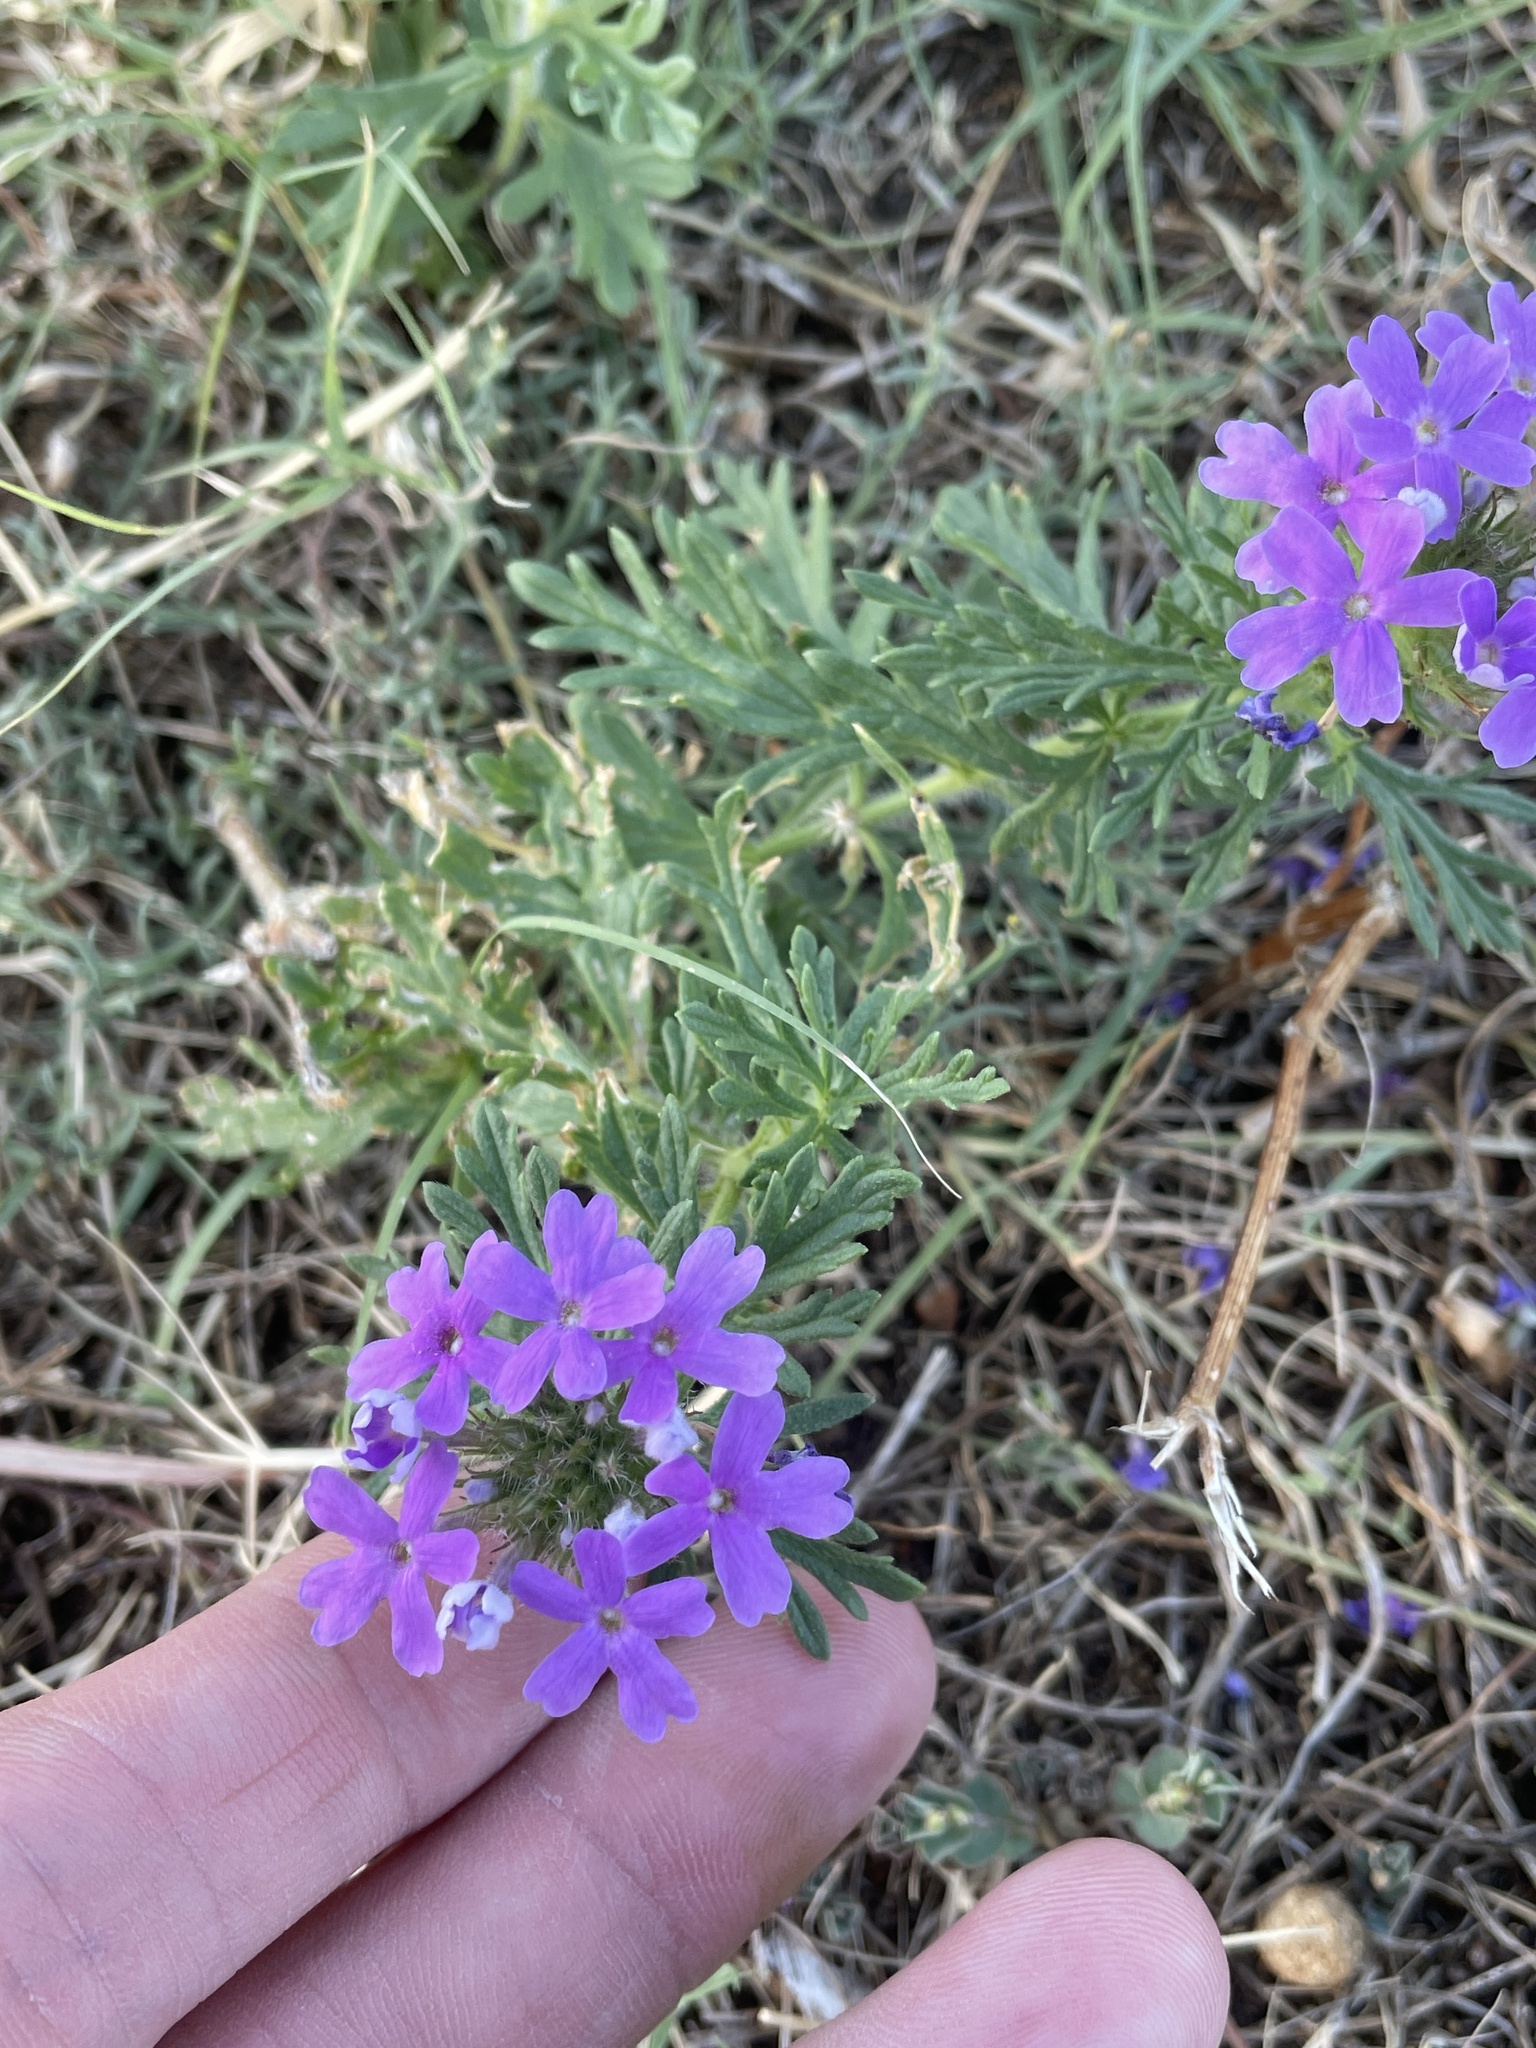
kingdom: Plantae
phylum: Tracheophyta
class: Magnoliopsida
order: Lamiales
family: Verbenaceae
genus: Verbena
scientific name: Verbena bipinnatifida
